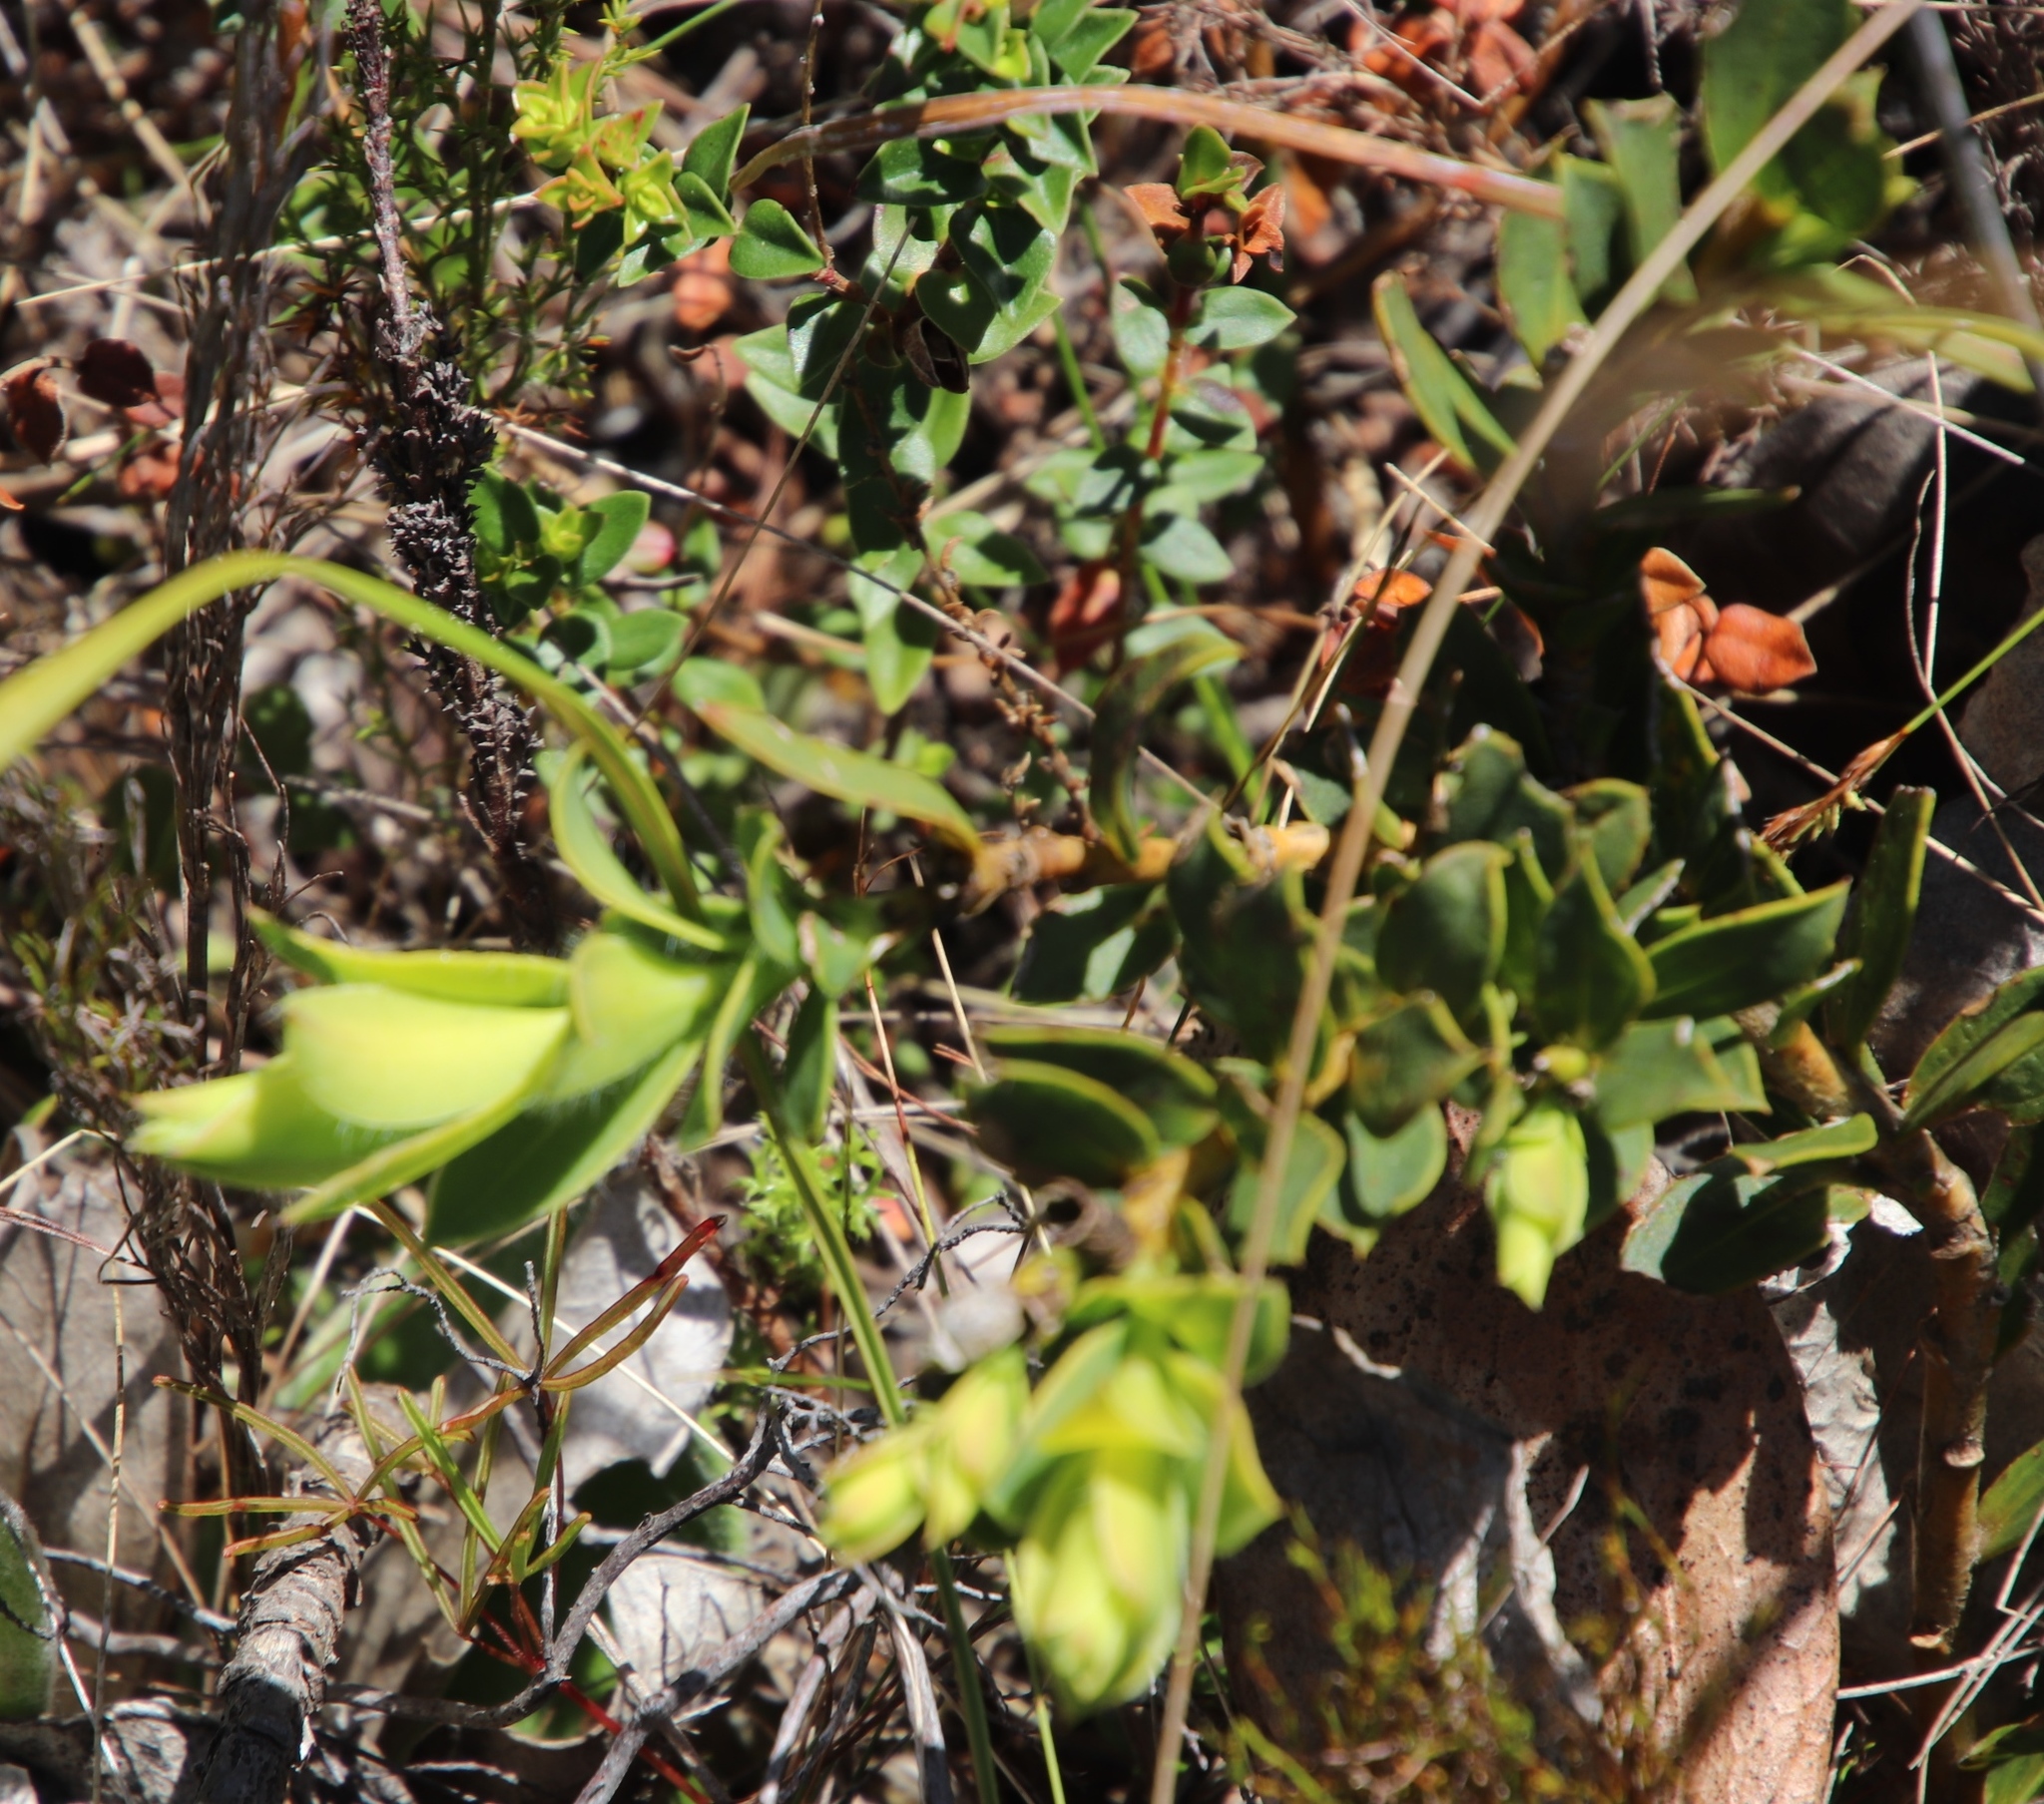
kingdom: Plantae
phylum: Tracheophyta
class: Magnoliopsida
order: Fabales
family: Fabaceae
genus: Liparia
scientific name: Liparia splendens
